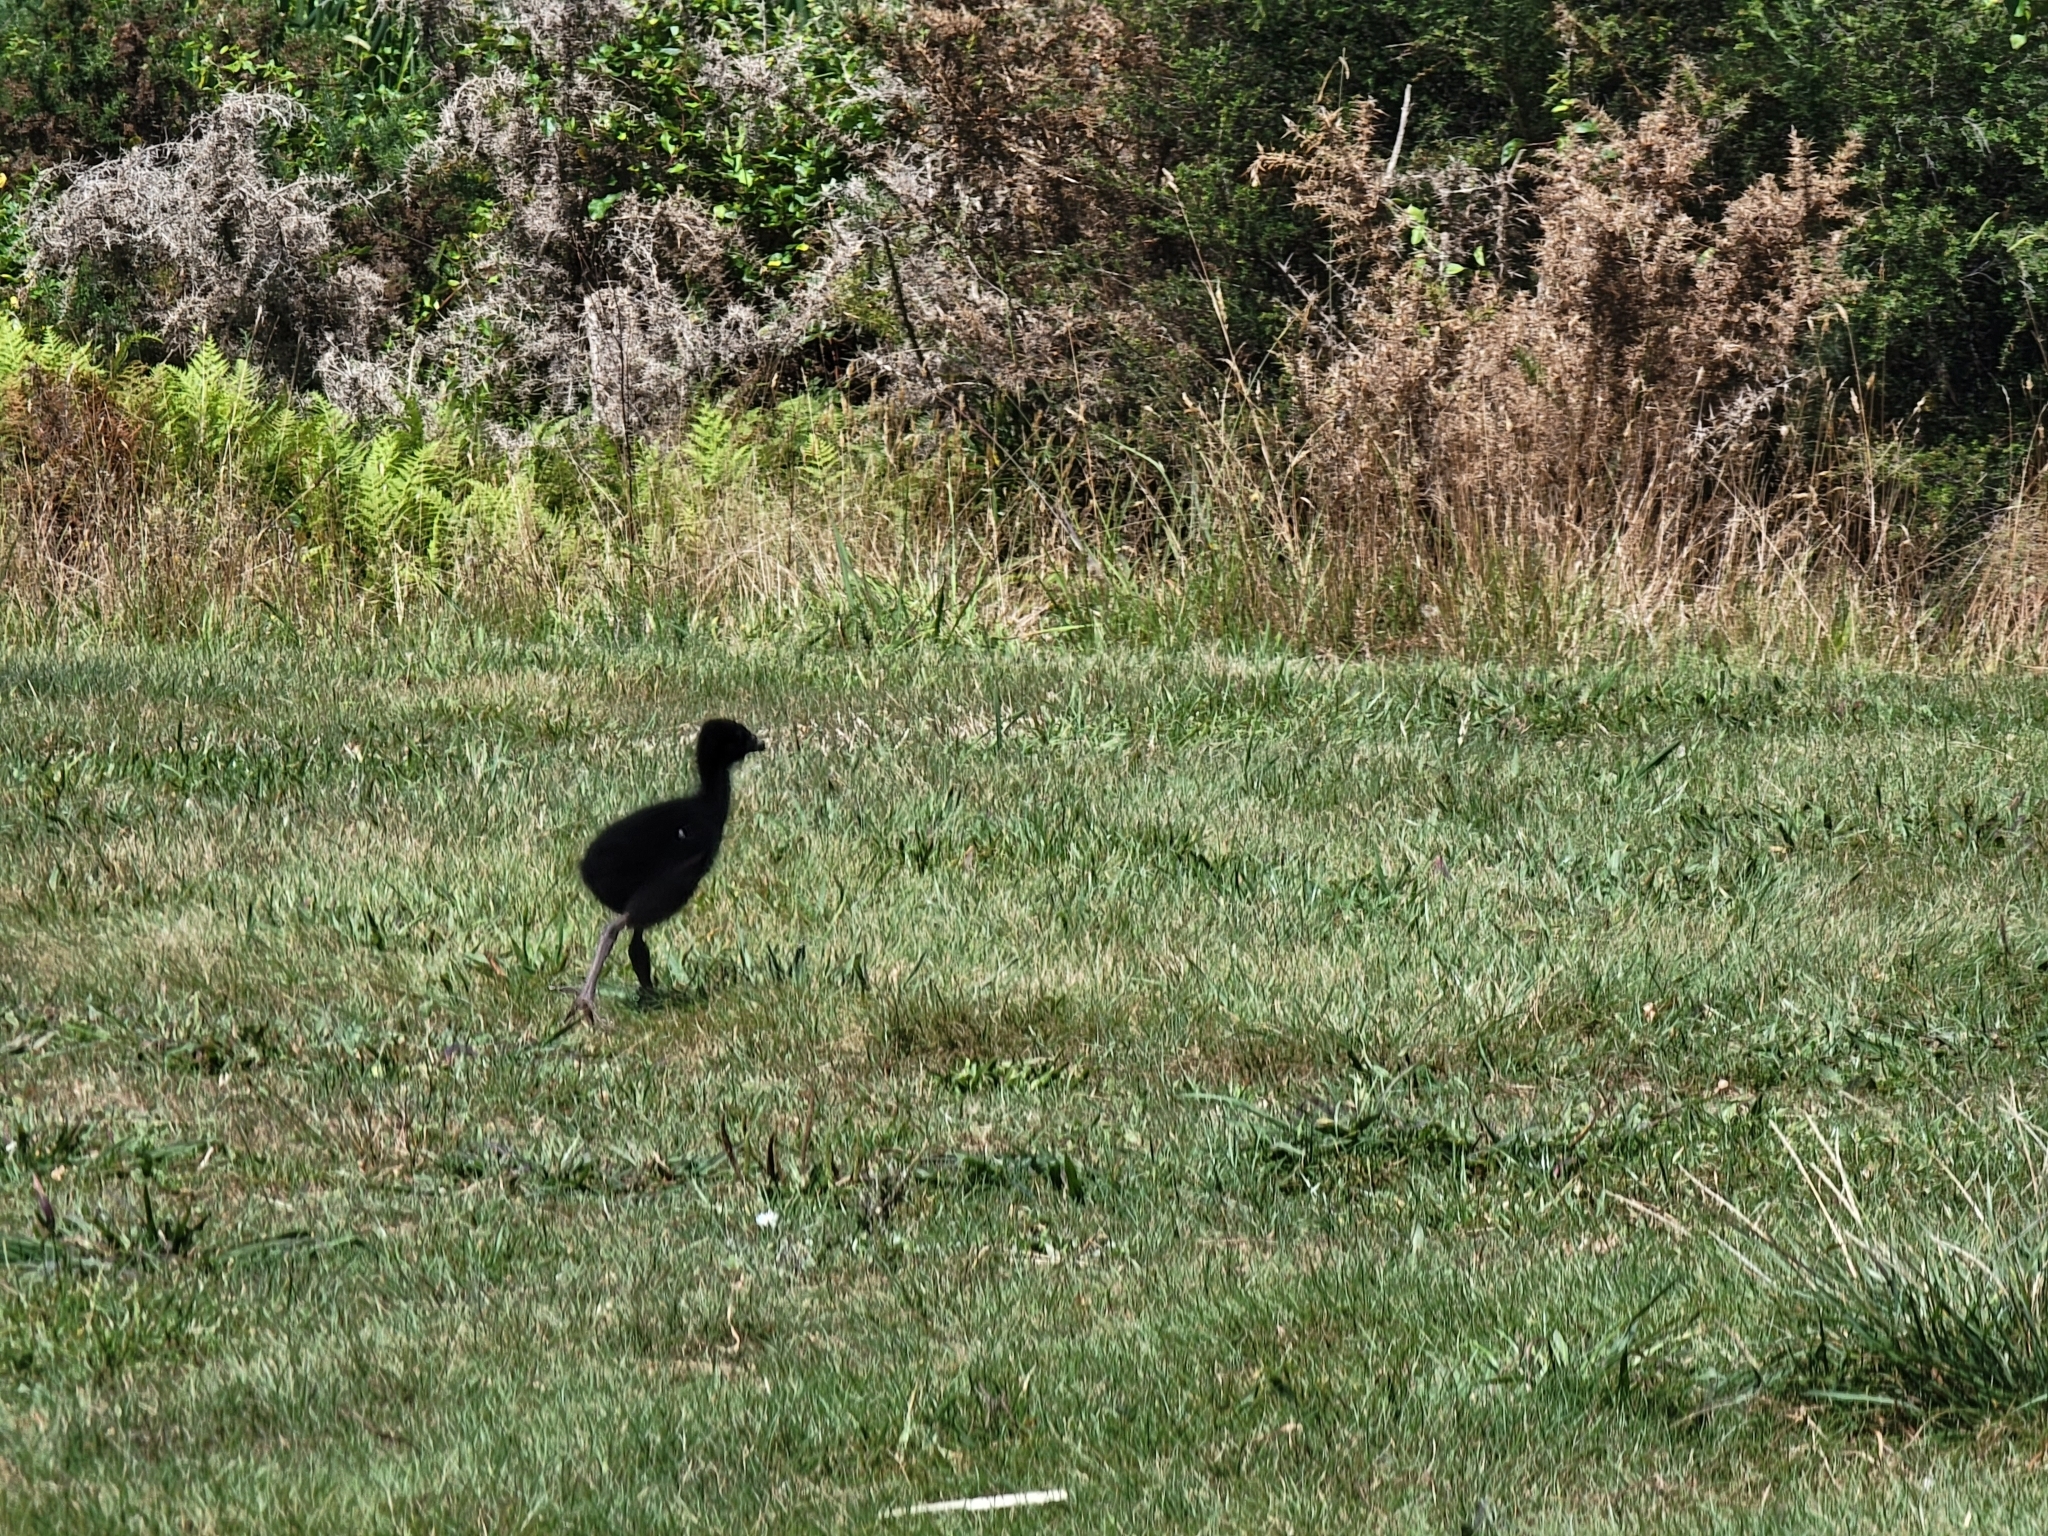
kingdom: Animalia
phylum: Chordata
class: Aves
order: Gruiformes
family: Rallidae
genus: Porphyrio
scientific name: Porphyrio melanotus
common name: Australasian swamphen
